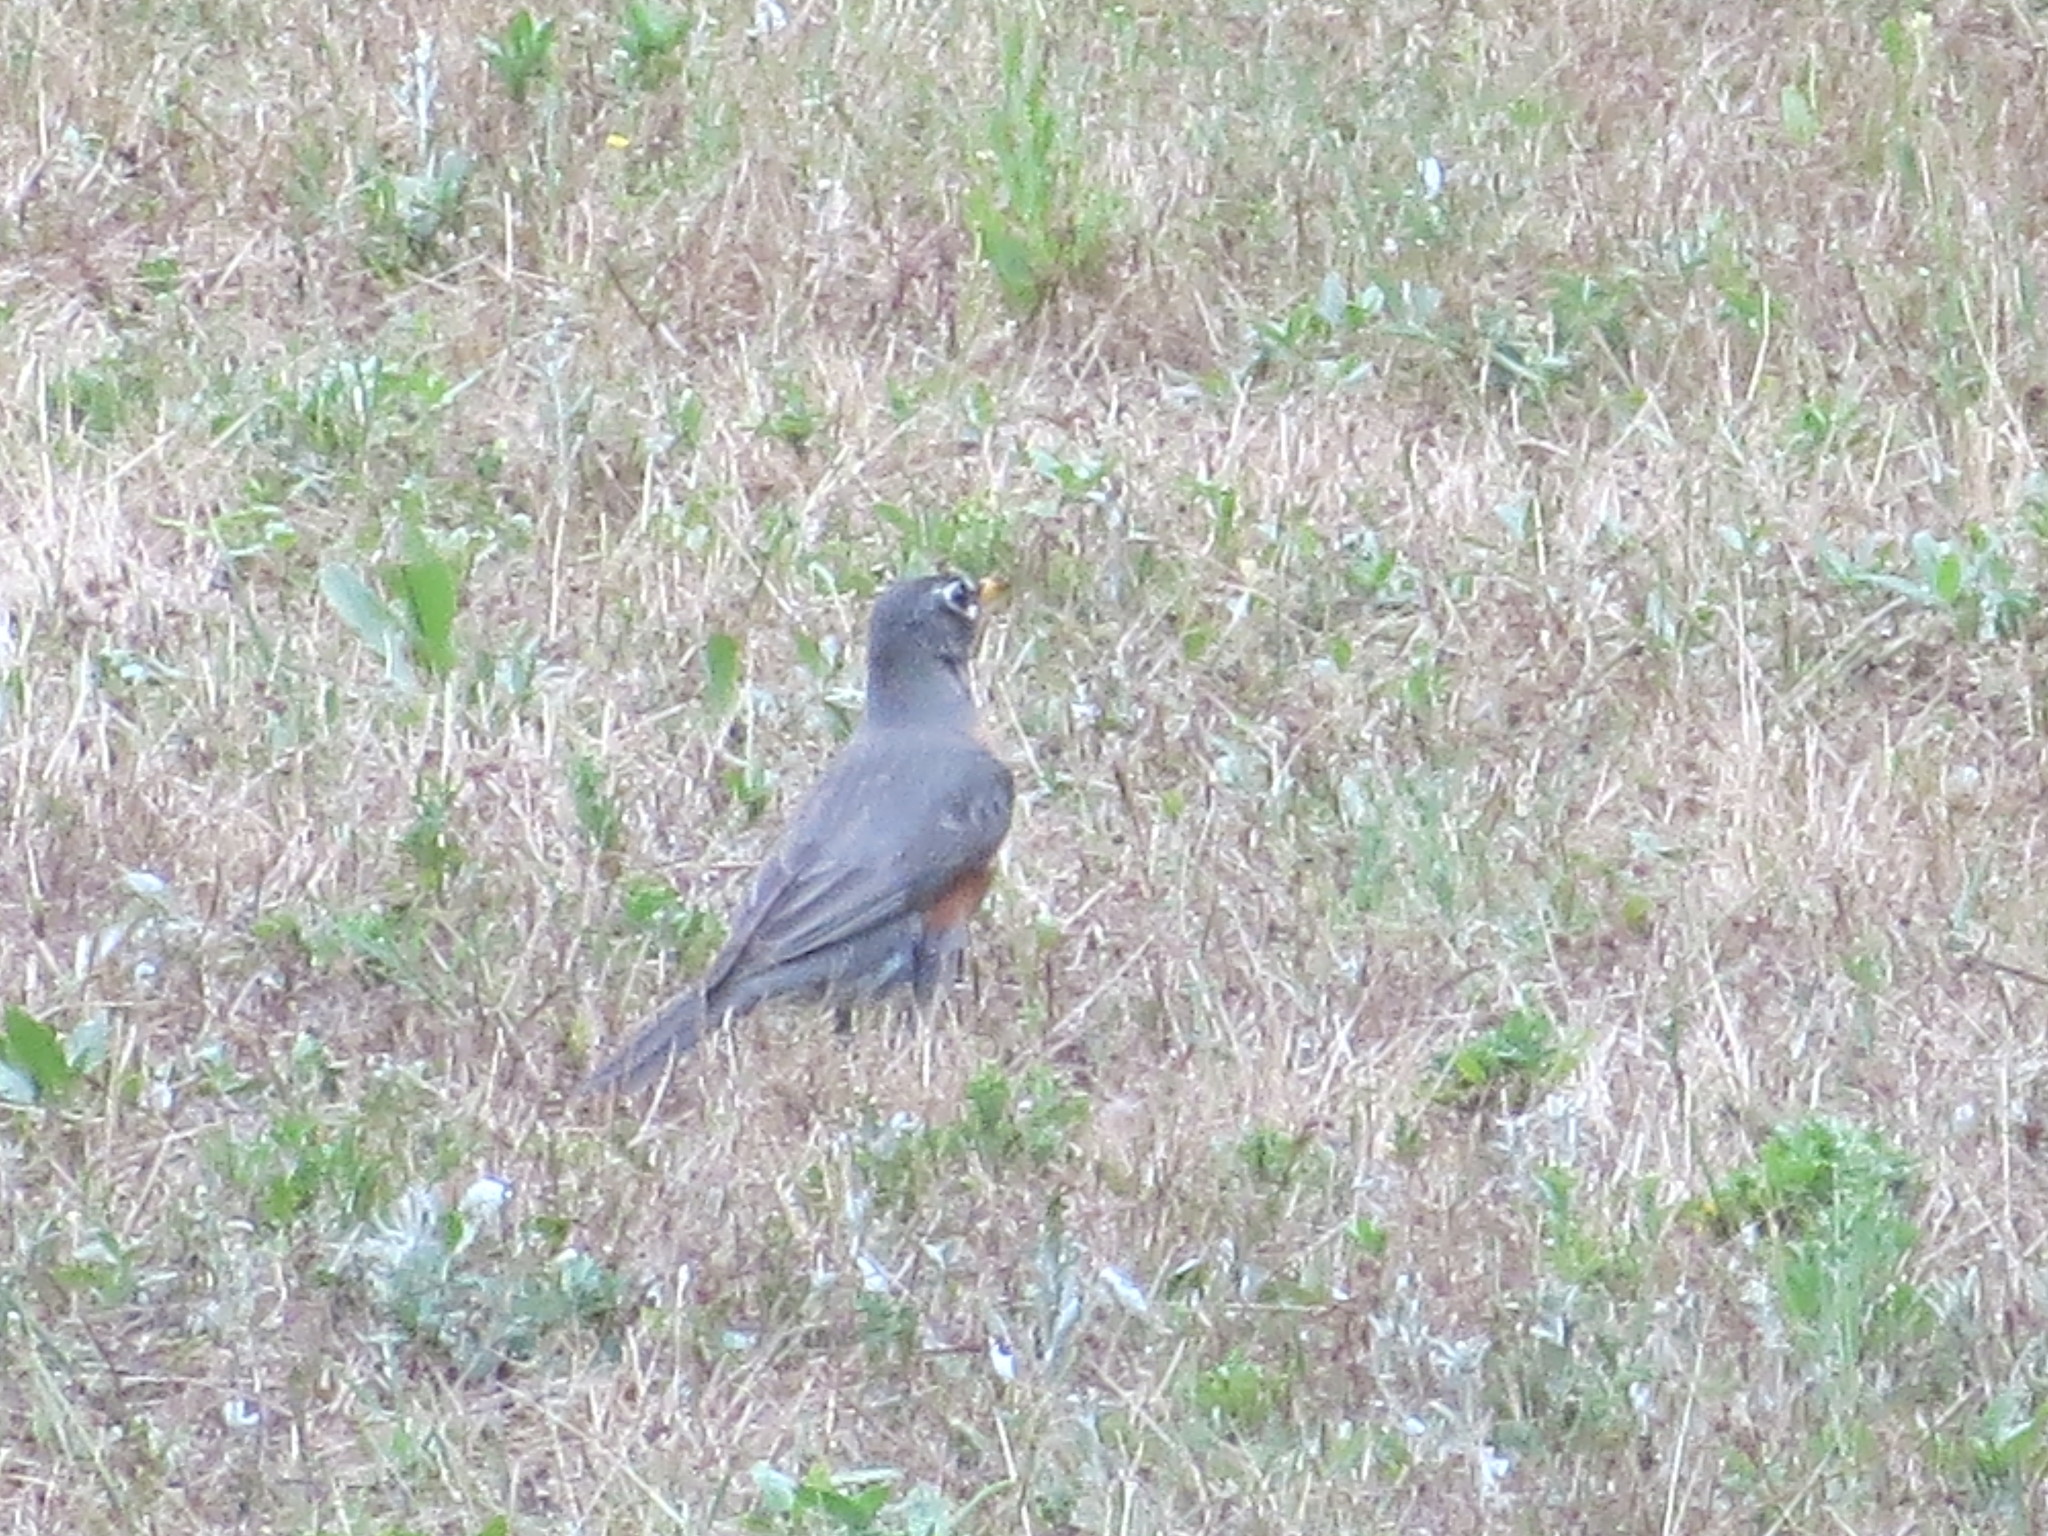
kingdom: Animalia
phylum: Chordata
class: Aves
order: Passeriformes
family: Turdidae
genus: Turdus
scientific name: Turdus migratorius
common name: American robin
